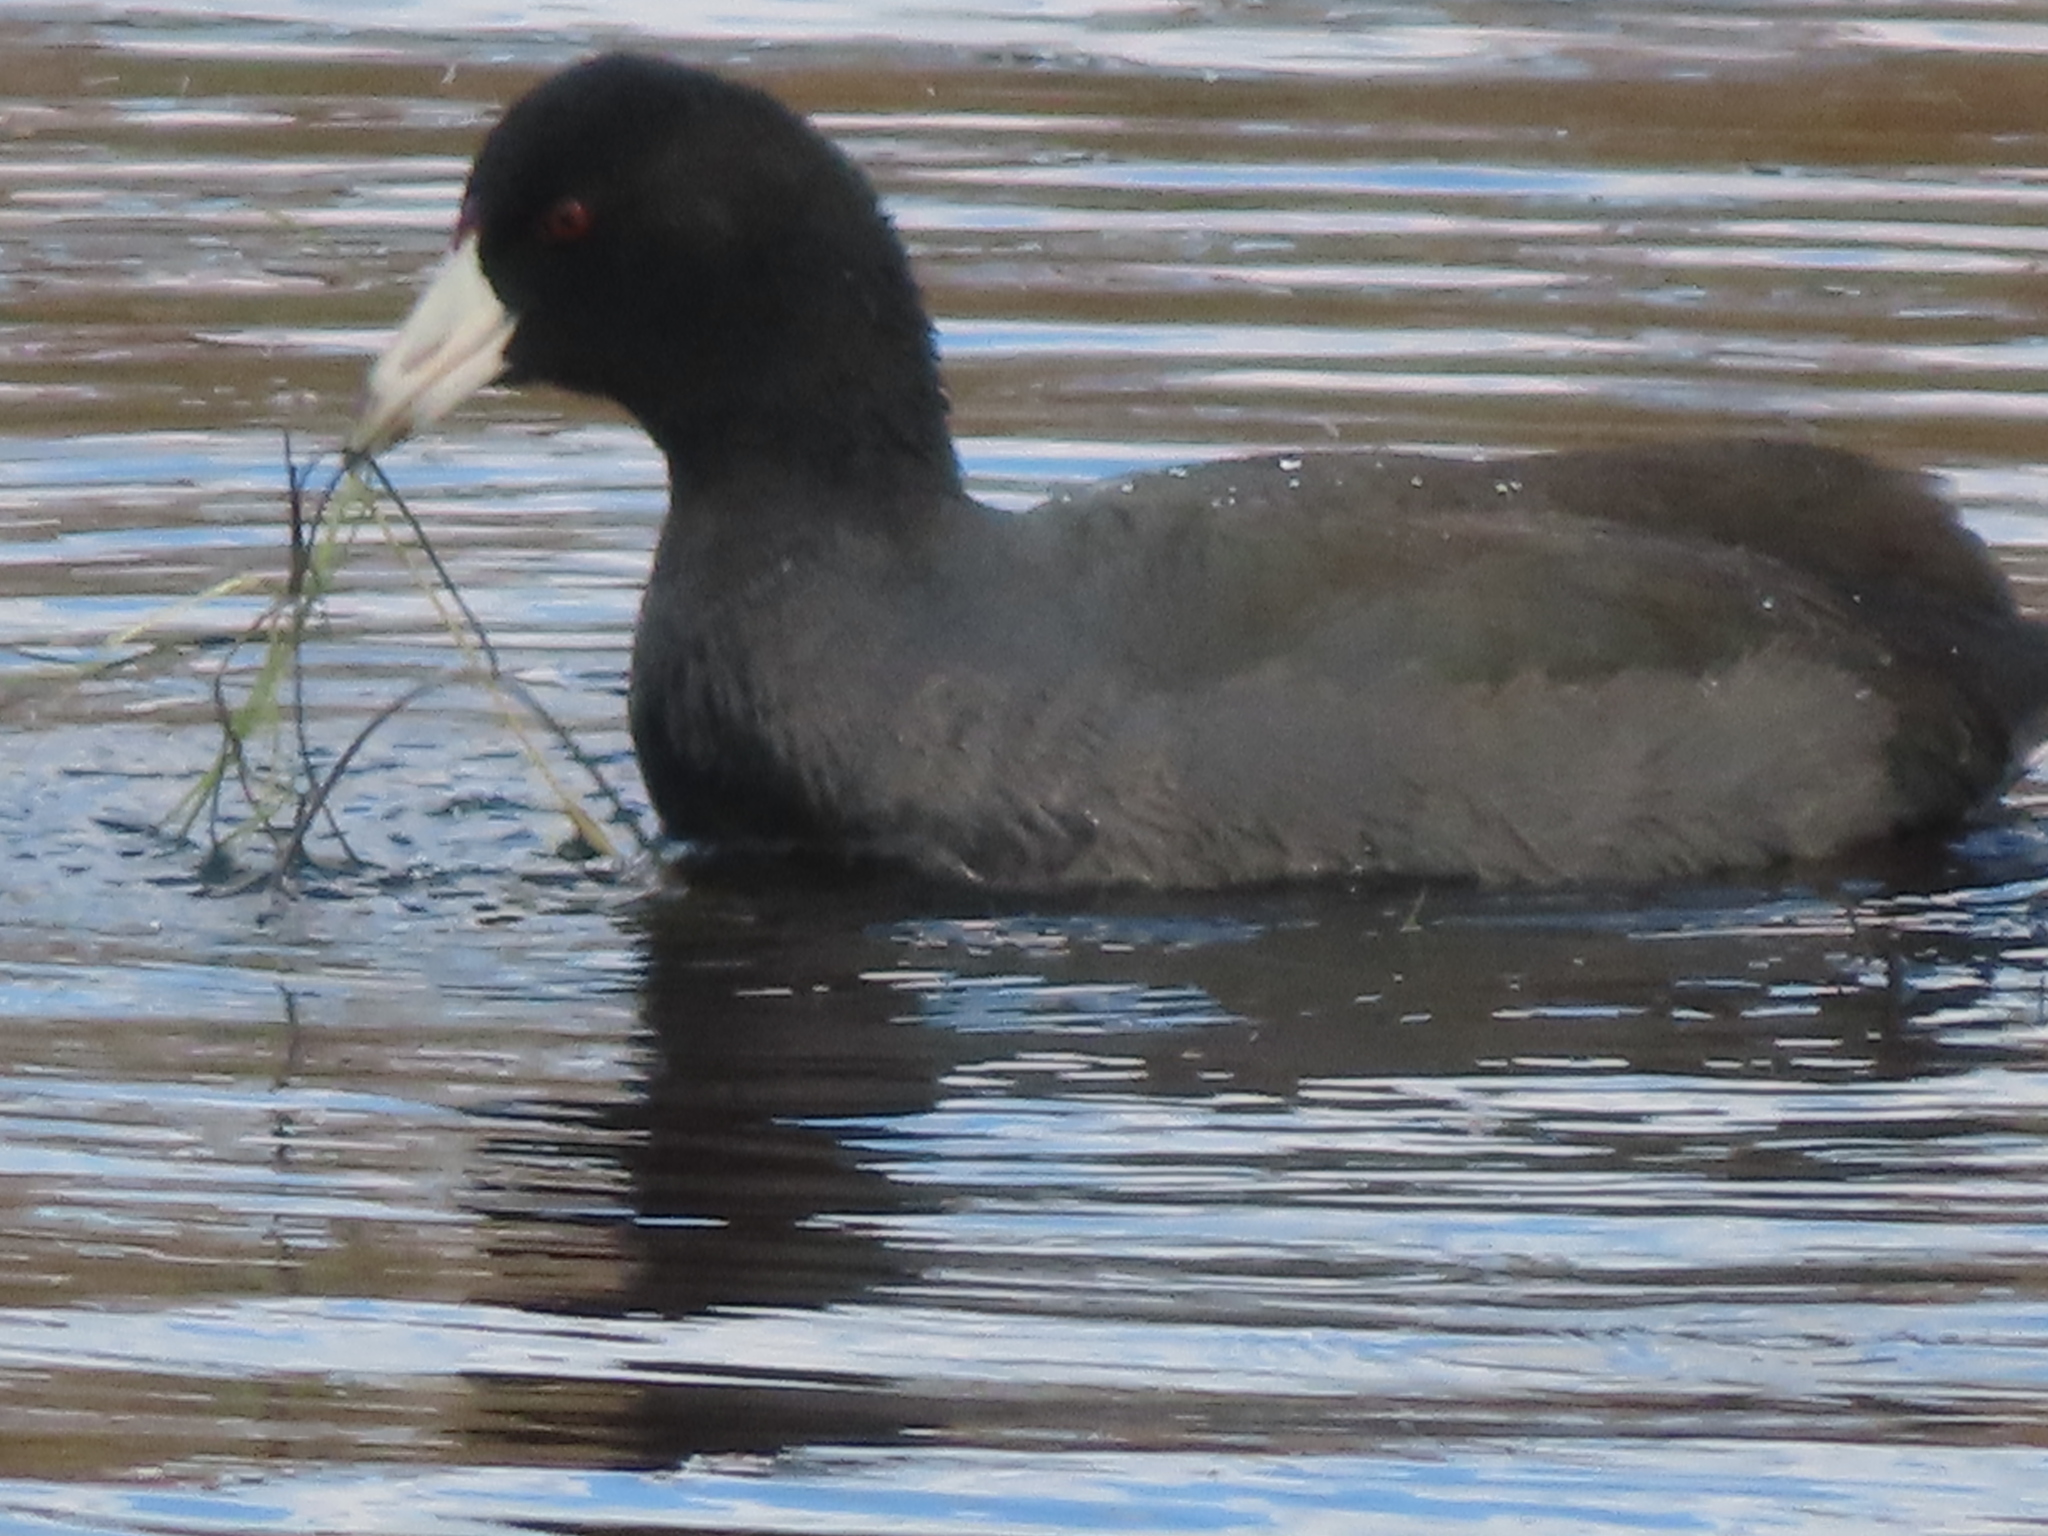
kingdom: Animalia
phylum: Chordata
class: Aves
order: Gruiformes
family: Rallidae
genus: Fulica
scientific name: Fulica americana
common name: American coot
